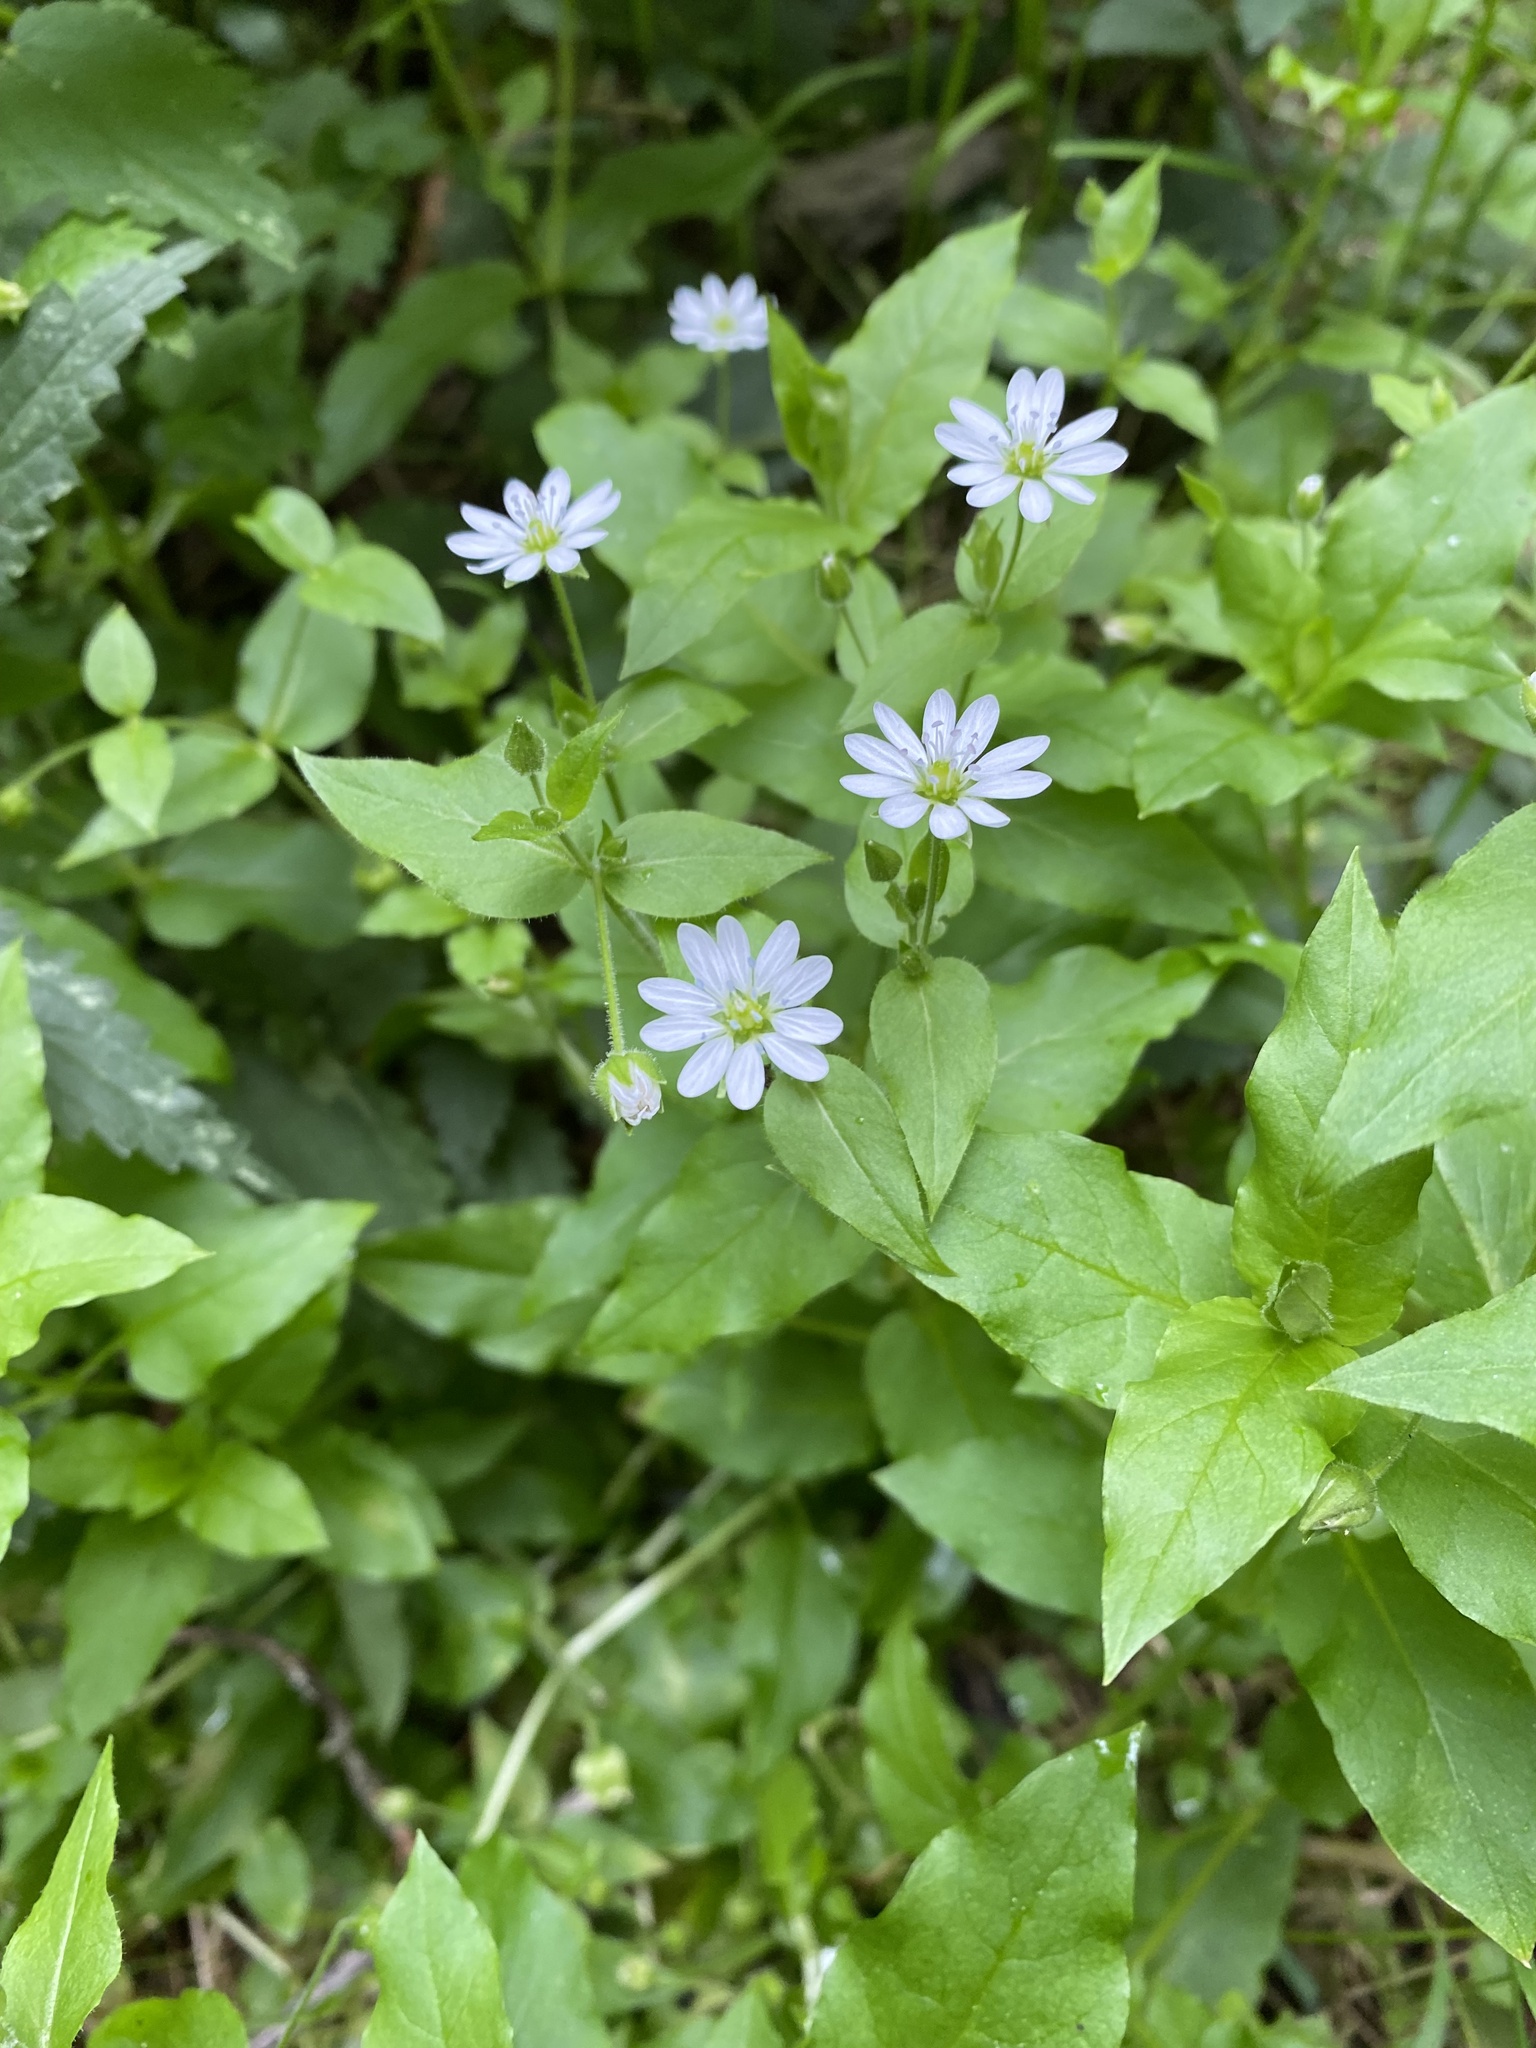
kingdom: Plantae
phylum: Tracheophyta
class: Magnoliopsida
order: Caryophyllales
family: Caryophyllaceae
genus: Stellaria
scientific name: Stellaria nemorum
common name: Wood stitchwort
